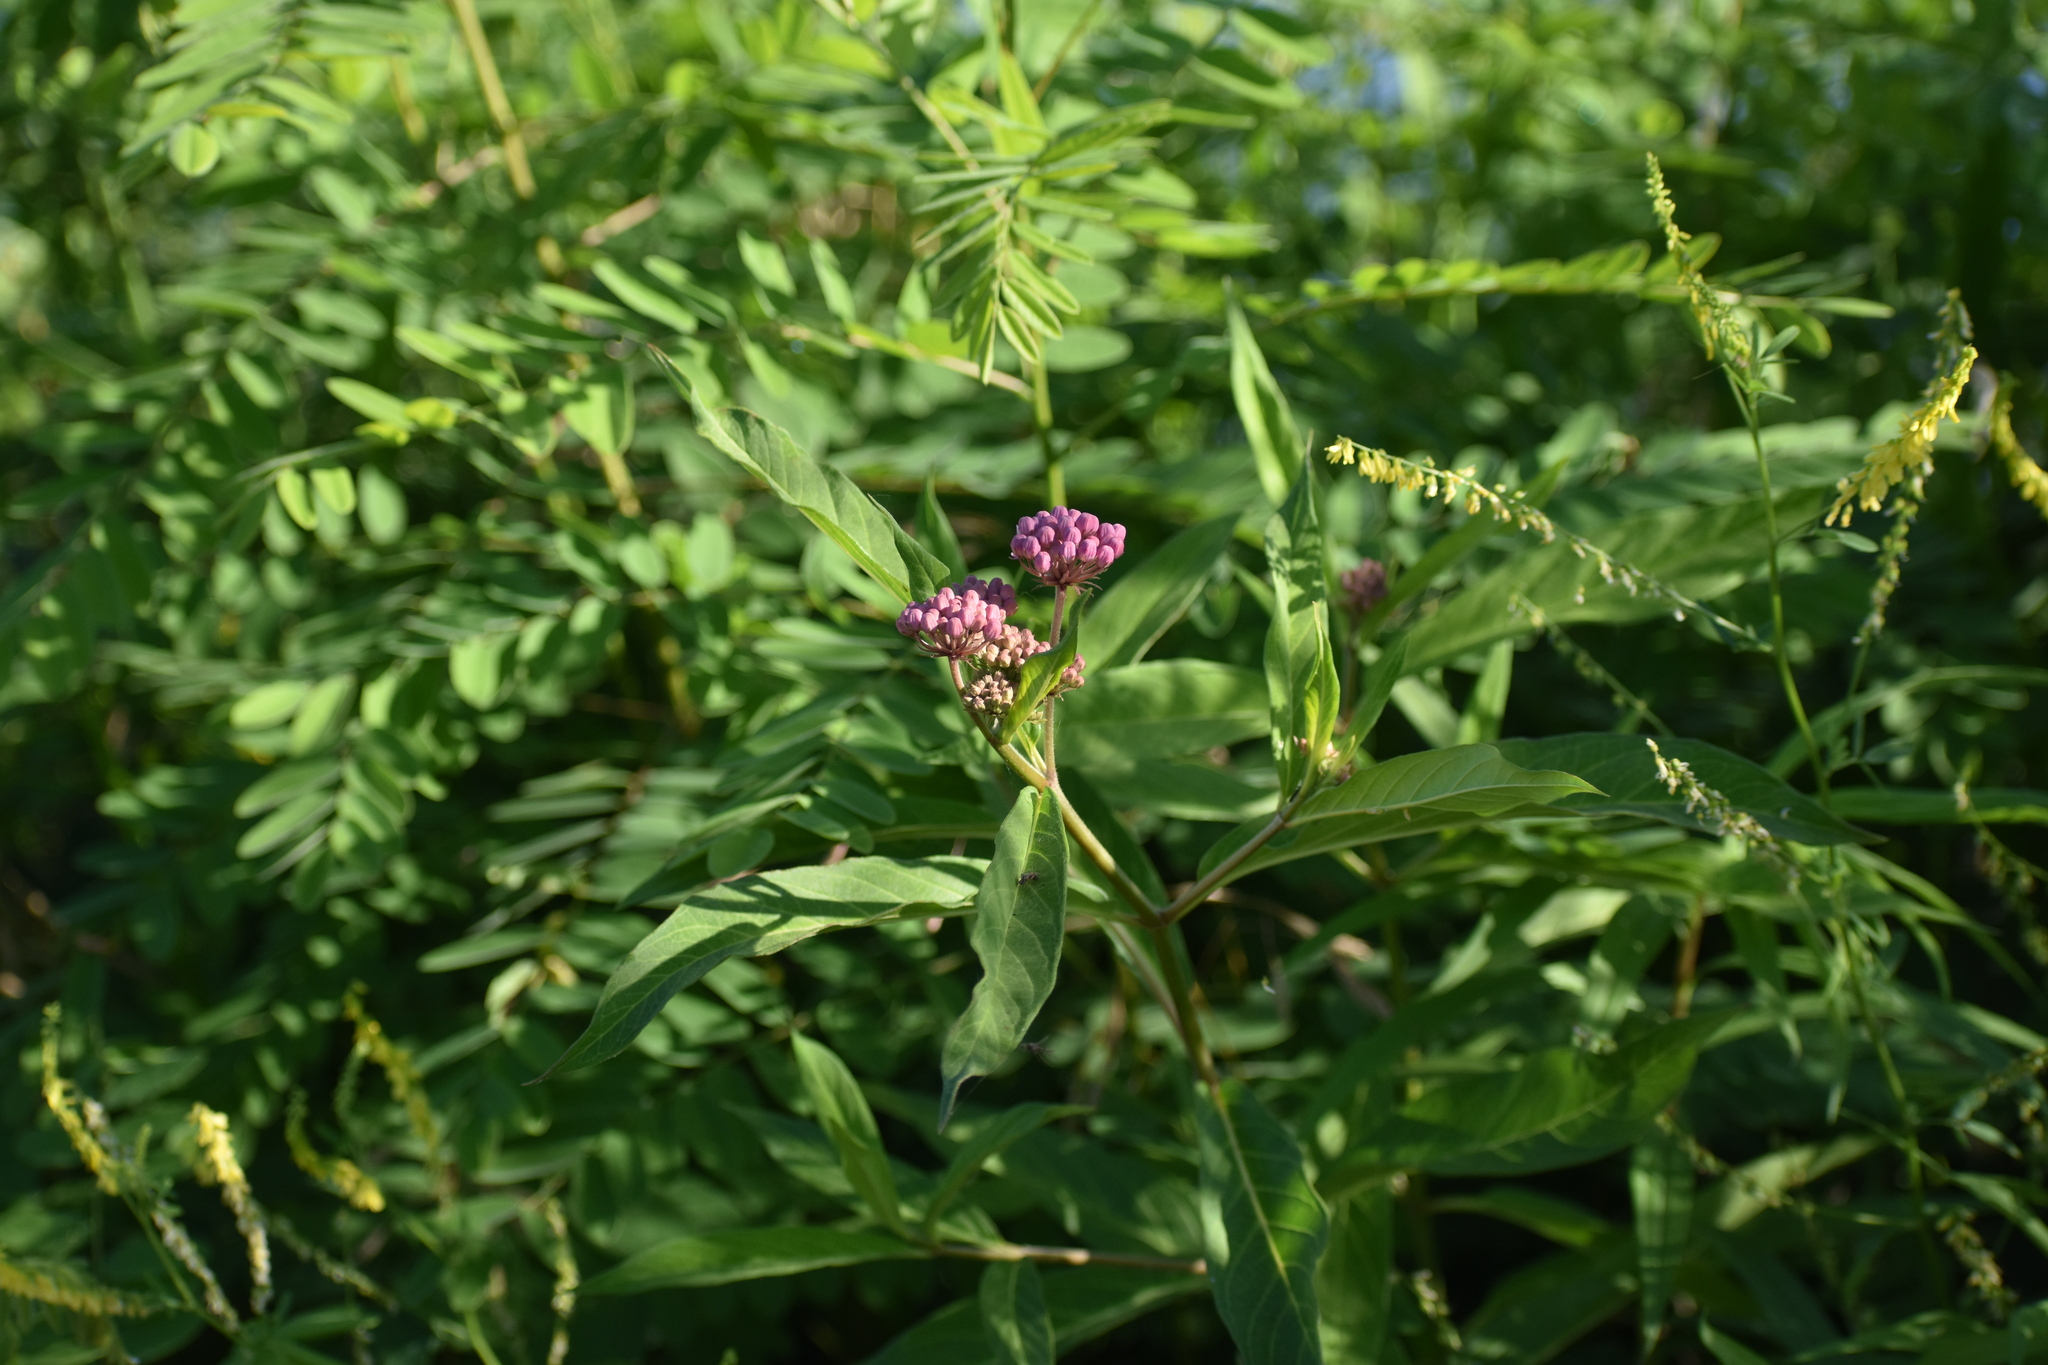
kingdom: Plantae
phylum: Tracheophyta
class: Magnoliopsida
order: Gentianales
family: Apocynaceae
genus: Asclepias
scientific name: Asclepias incarnata
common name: Swamp milkweed
